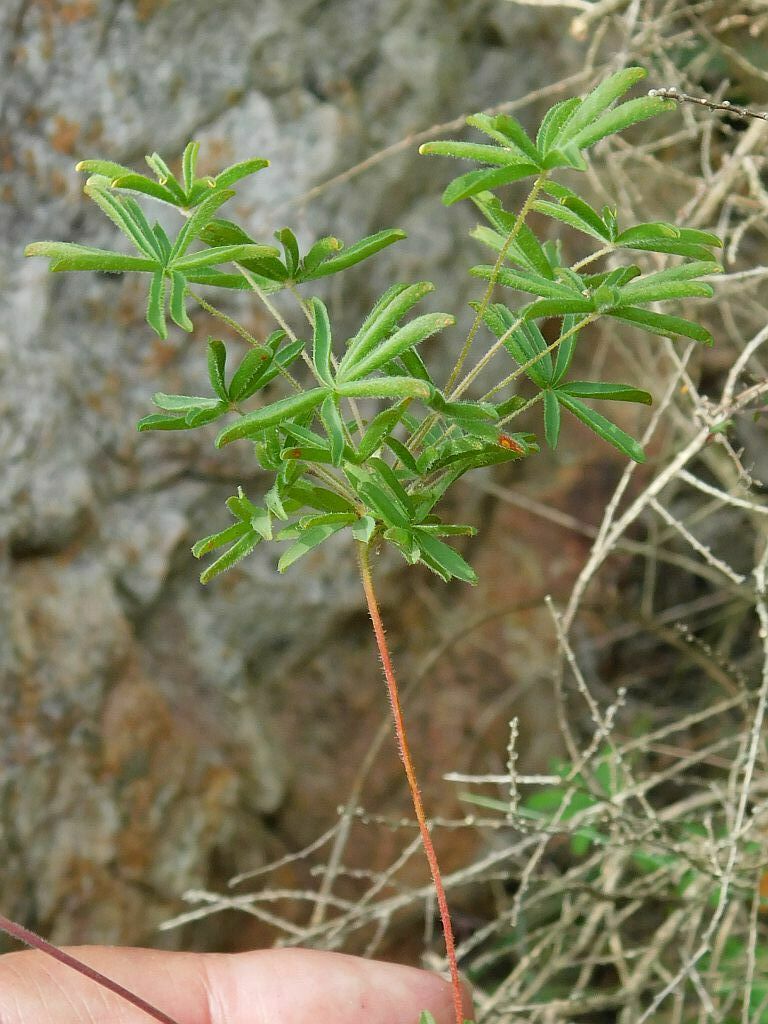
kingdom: Plantae
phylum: Tracheophyta
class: Magnoliopsida
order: Oxalidales
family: Oxalidaceae
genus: Oxalis
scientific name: Oxalis engleriana
